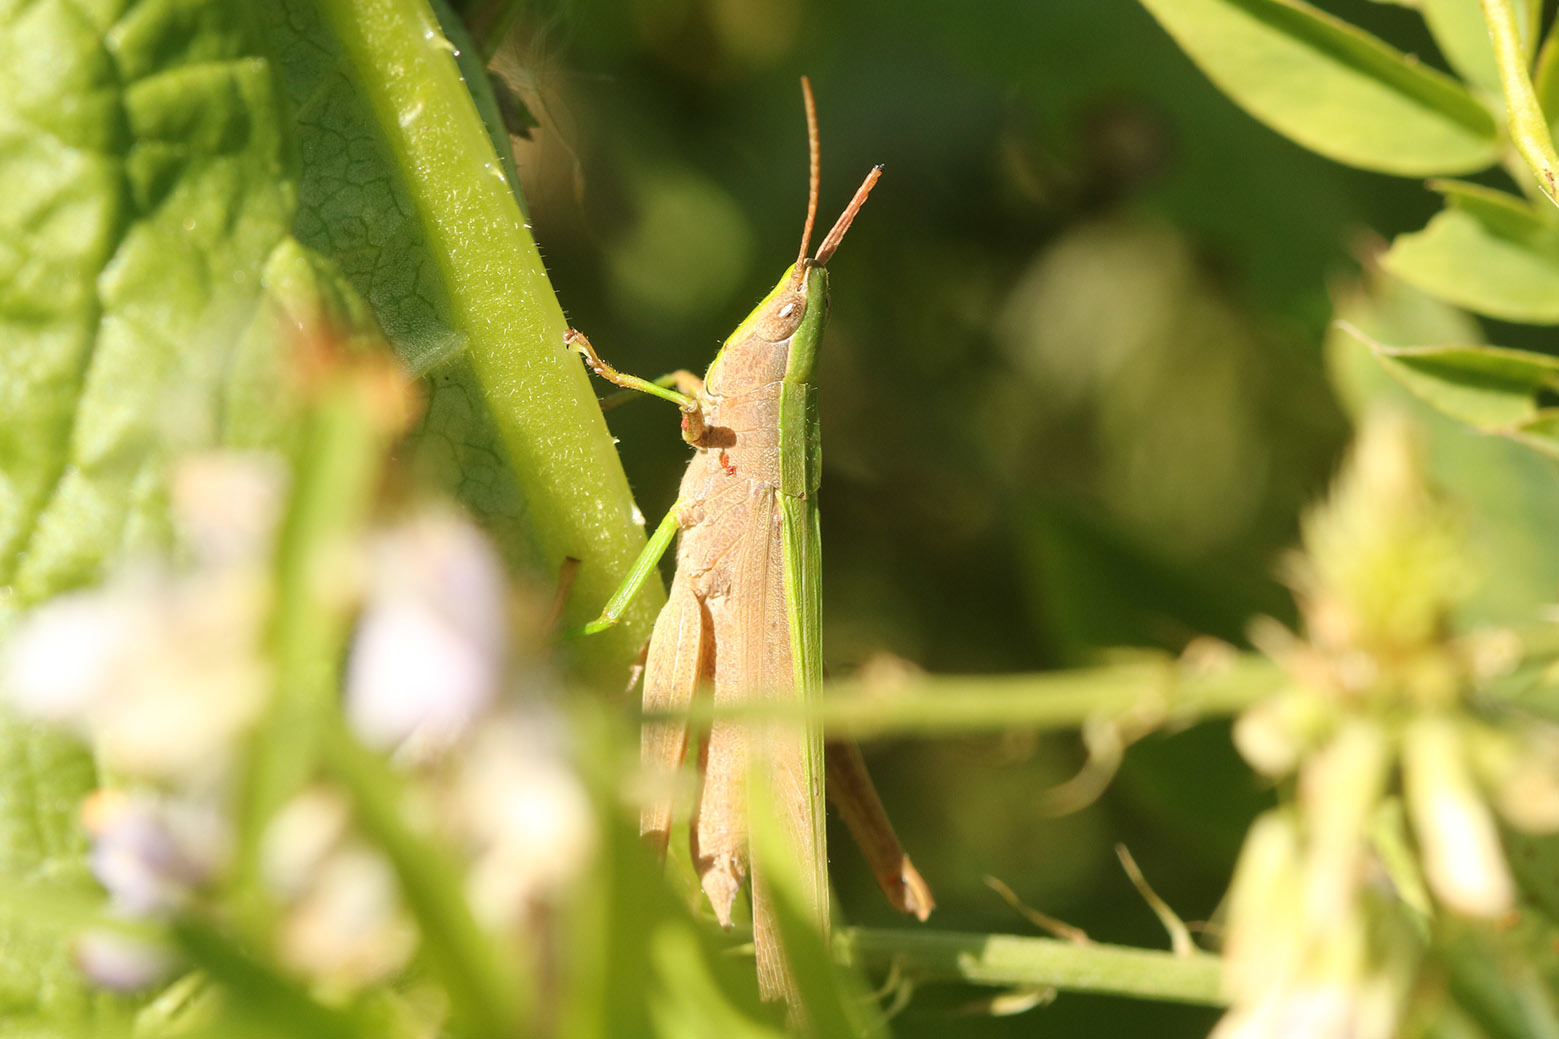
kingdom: Animalia
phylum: Arthropoda
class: Insecta
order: Orthoptera
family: Acrididae
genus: Metaleptea
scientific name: Metaleptea adspersa
